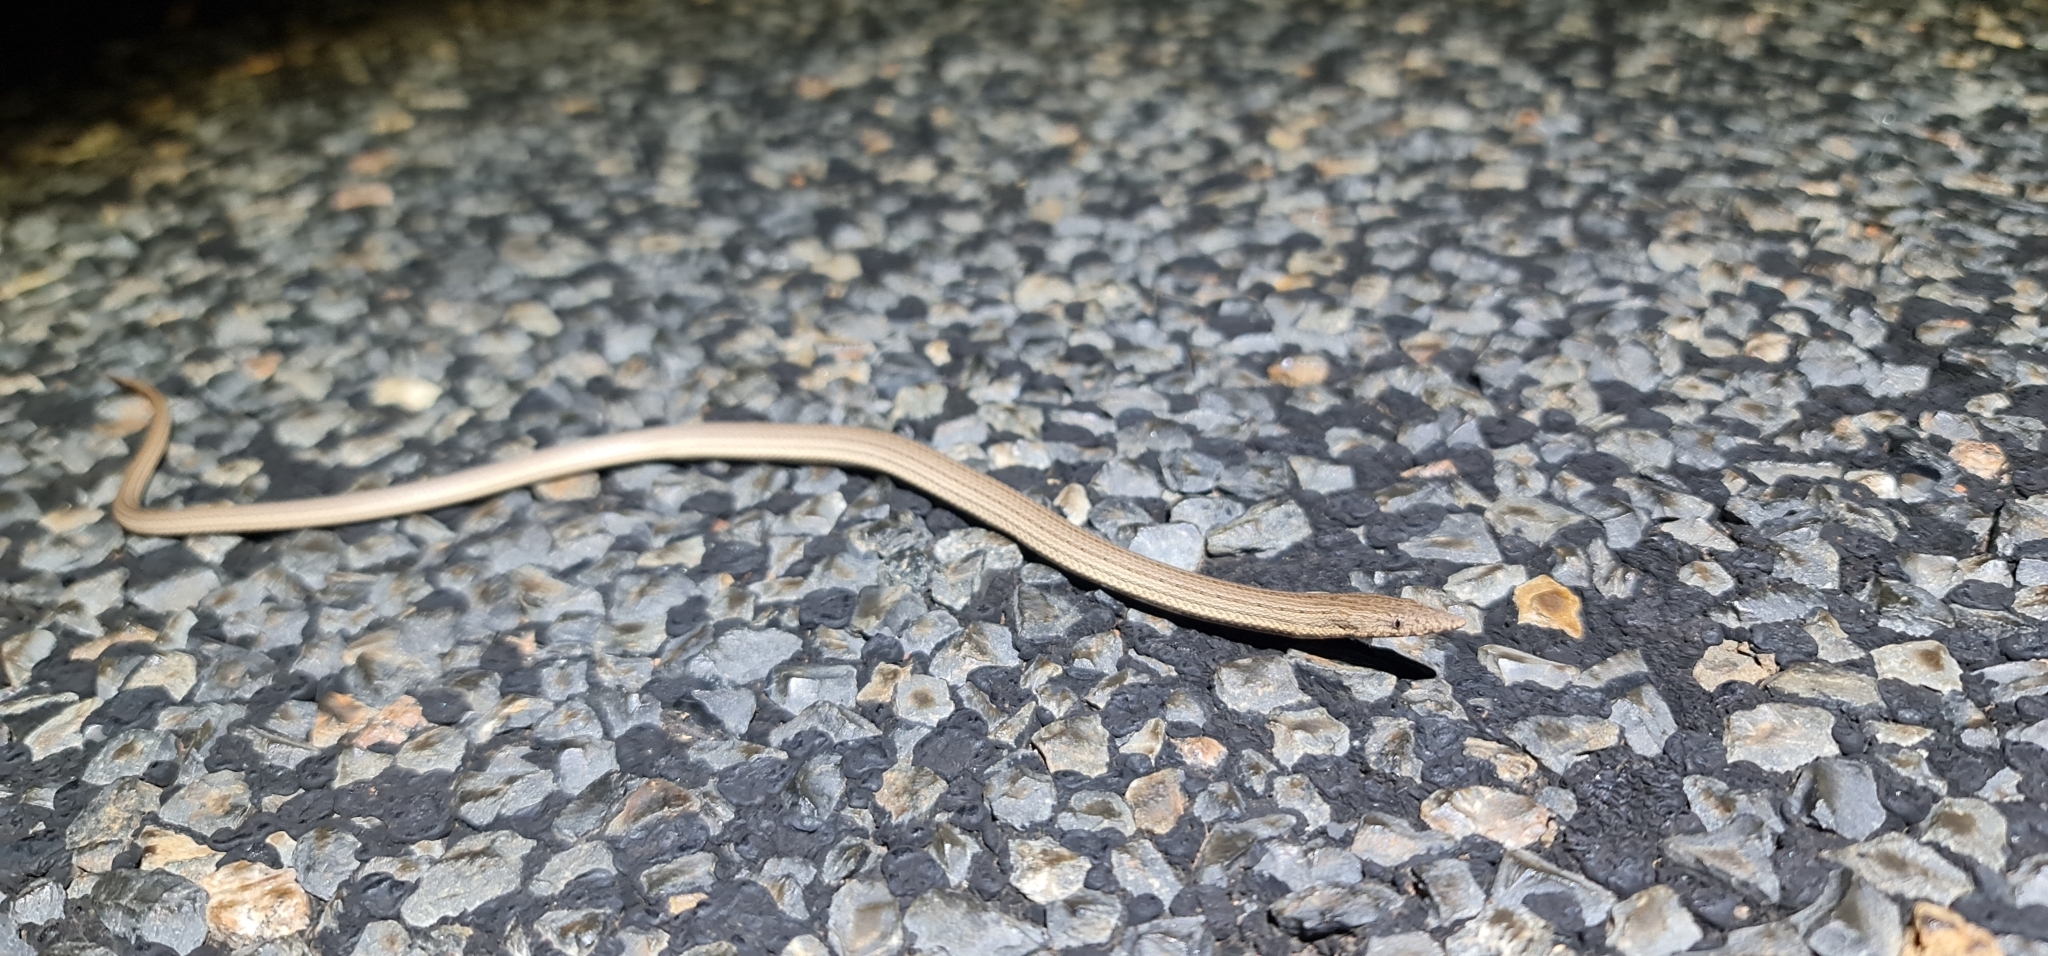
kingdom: Animalia
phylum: Chordata
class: Squamata
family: Pygopodidae
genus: Lialis
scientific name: Lialis burtonis
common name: Burton's legless lizard
